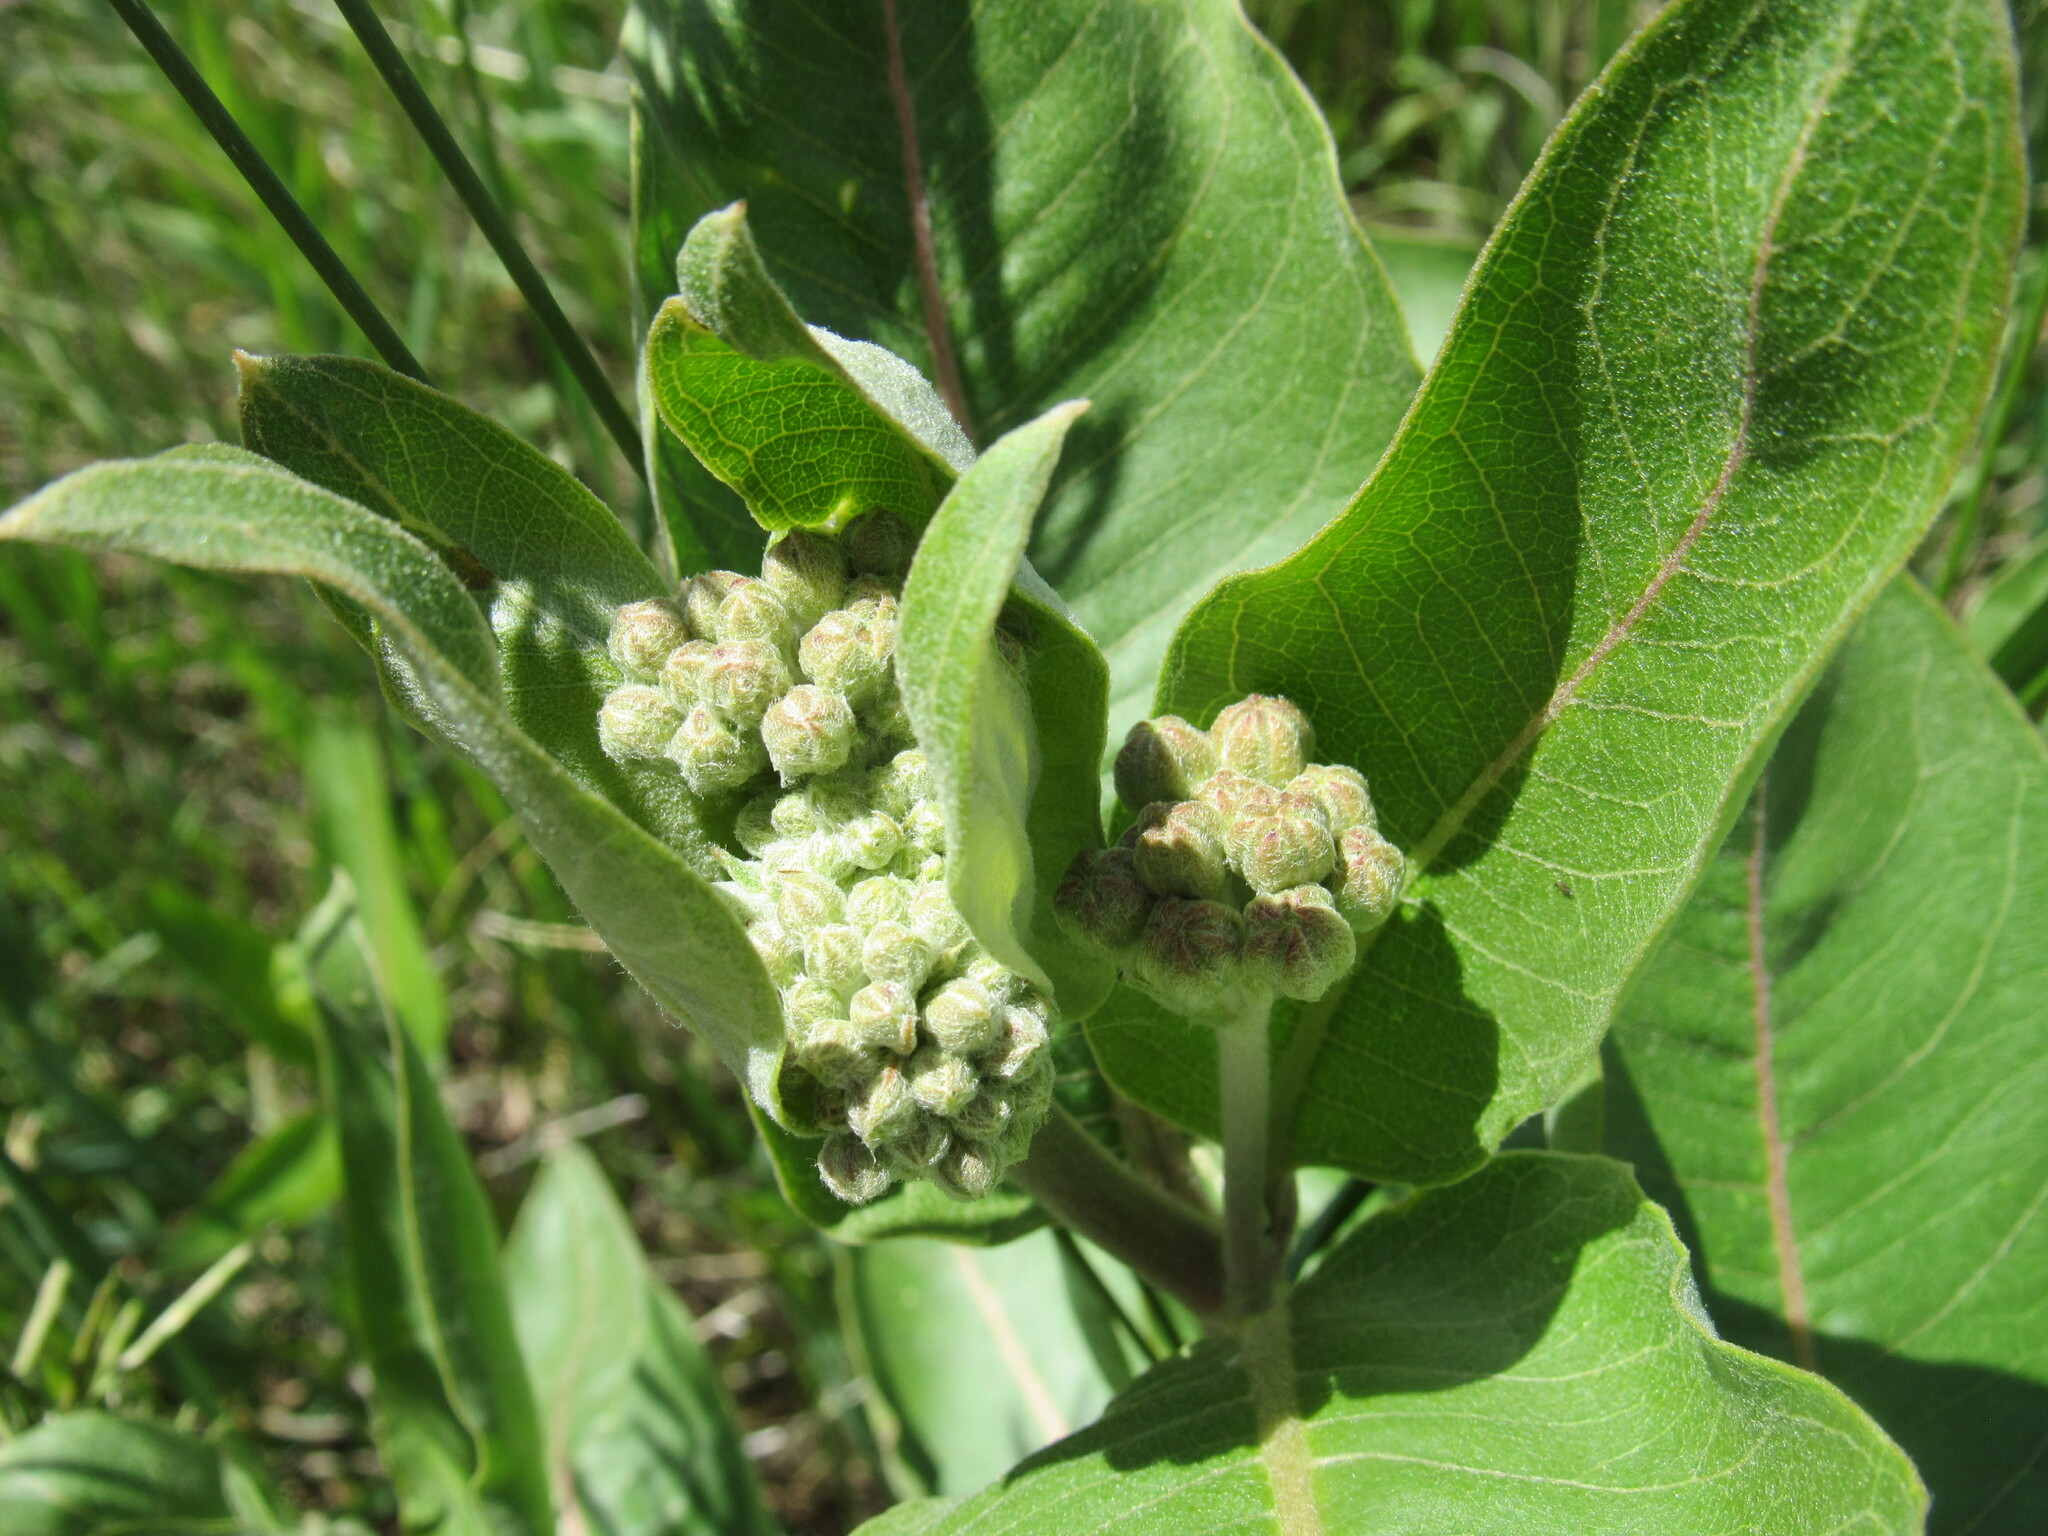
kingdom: Plantae
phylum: Tracheophyta
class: Magnoliopsida
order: Gentianales
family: Apocynaceae
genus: Asclepias
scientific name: Asclepias speciosa
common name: Showy milkweed
